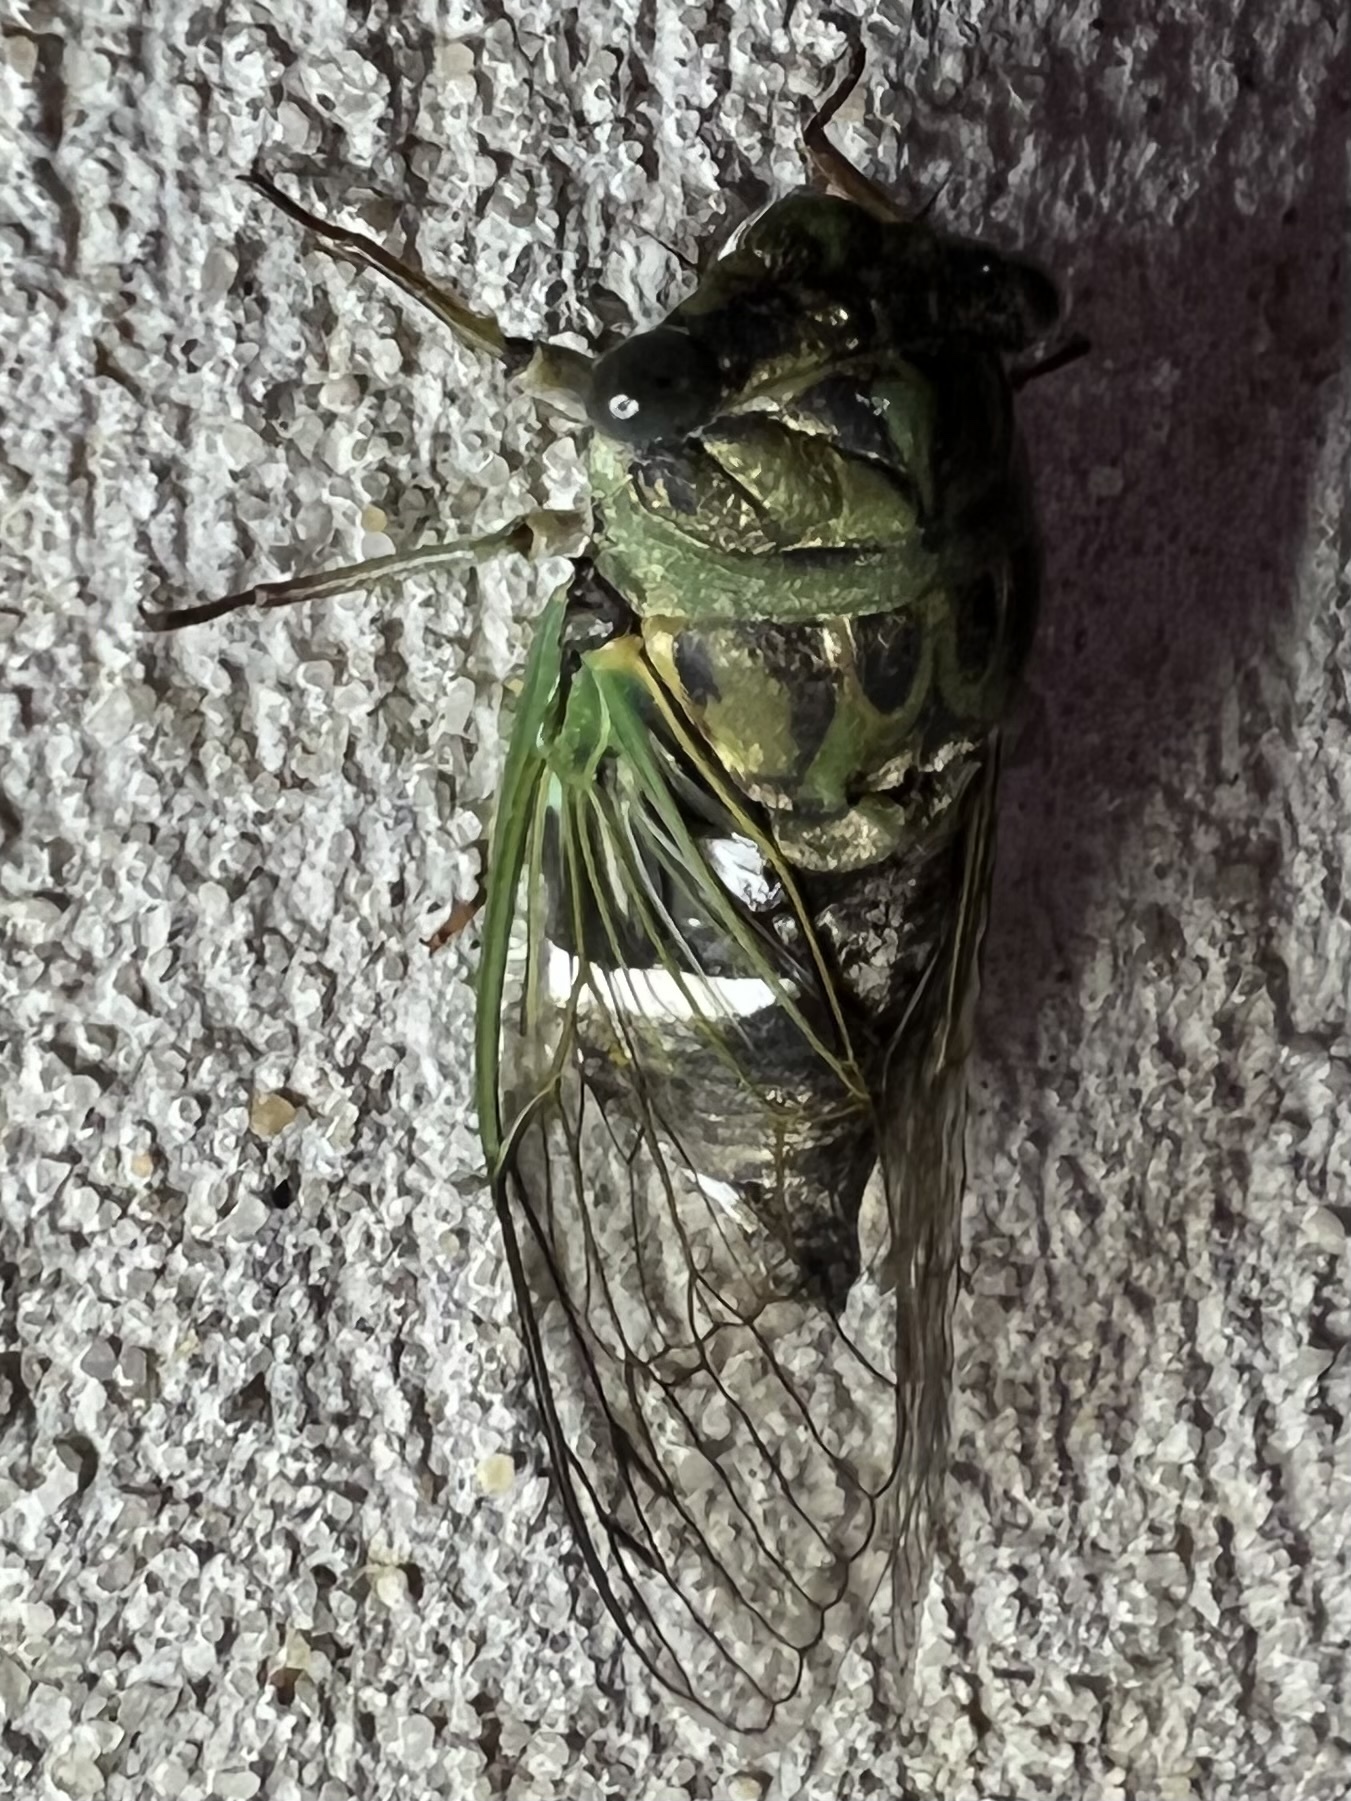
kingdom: Animalia
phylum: Arthropoda
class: Insecta
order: Hemiptera
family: Cicadidae
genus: Neotibicen
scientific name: Neotibicen latifasciatus
